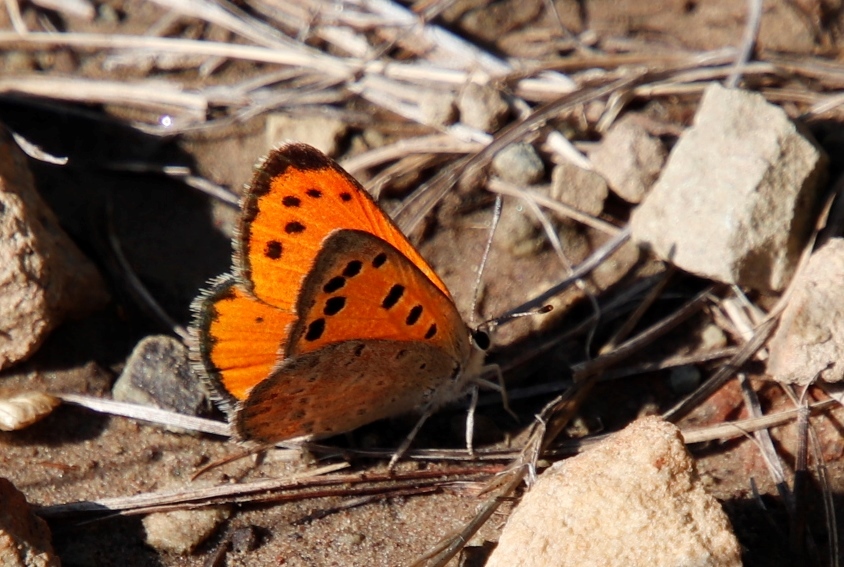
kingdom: Animalia
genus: Lafron
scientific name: Lafron
